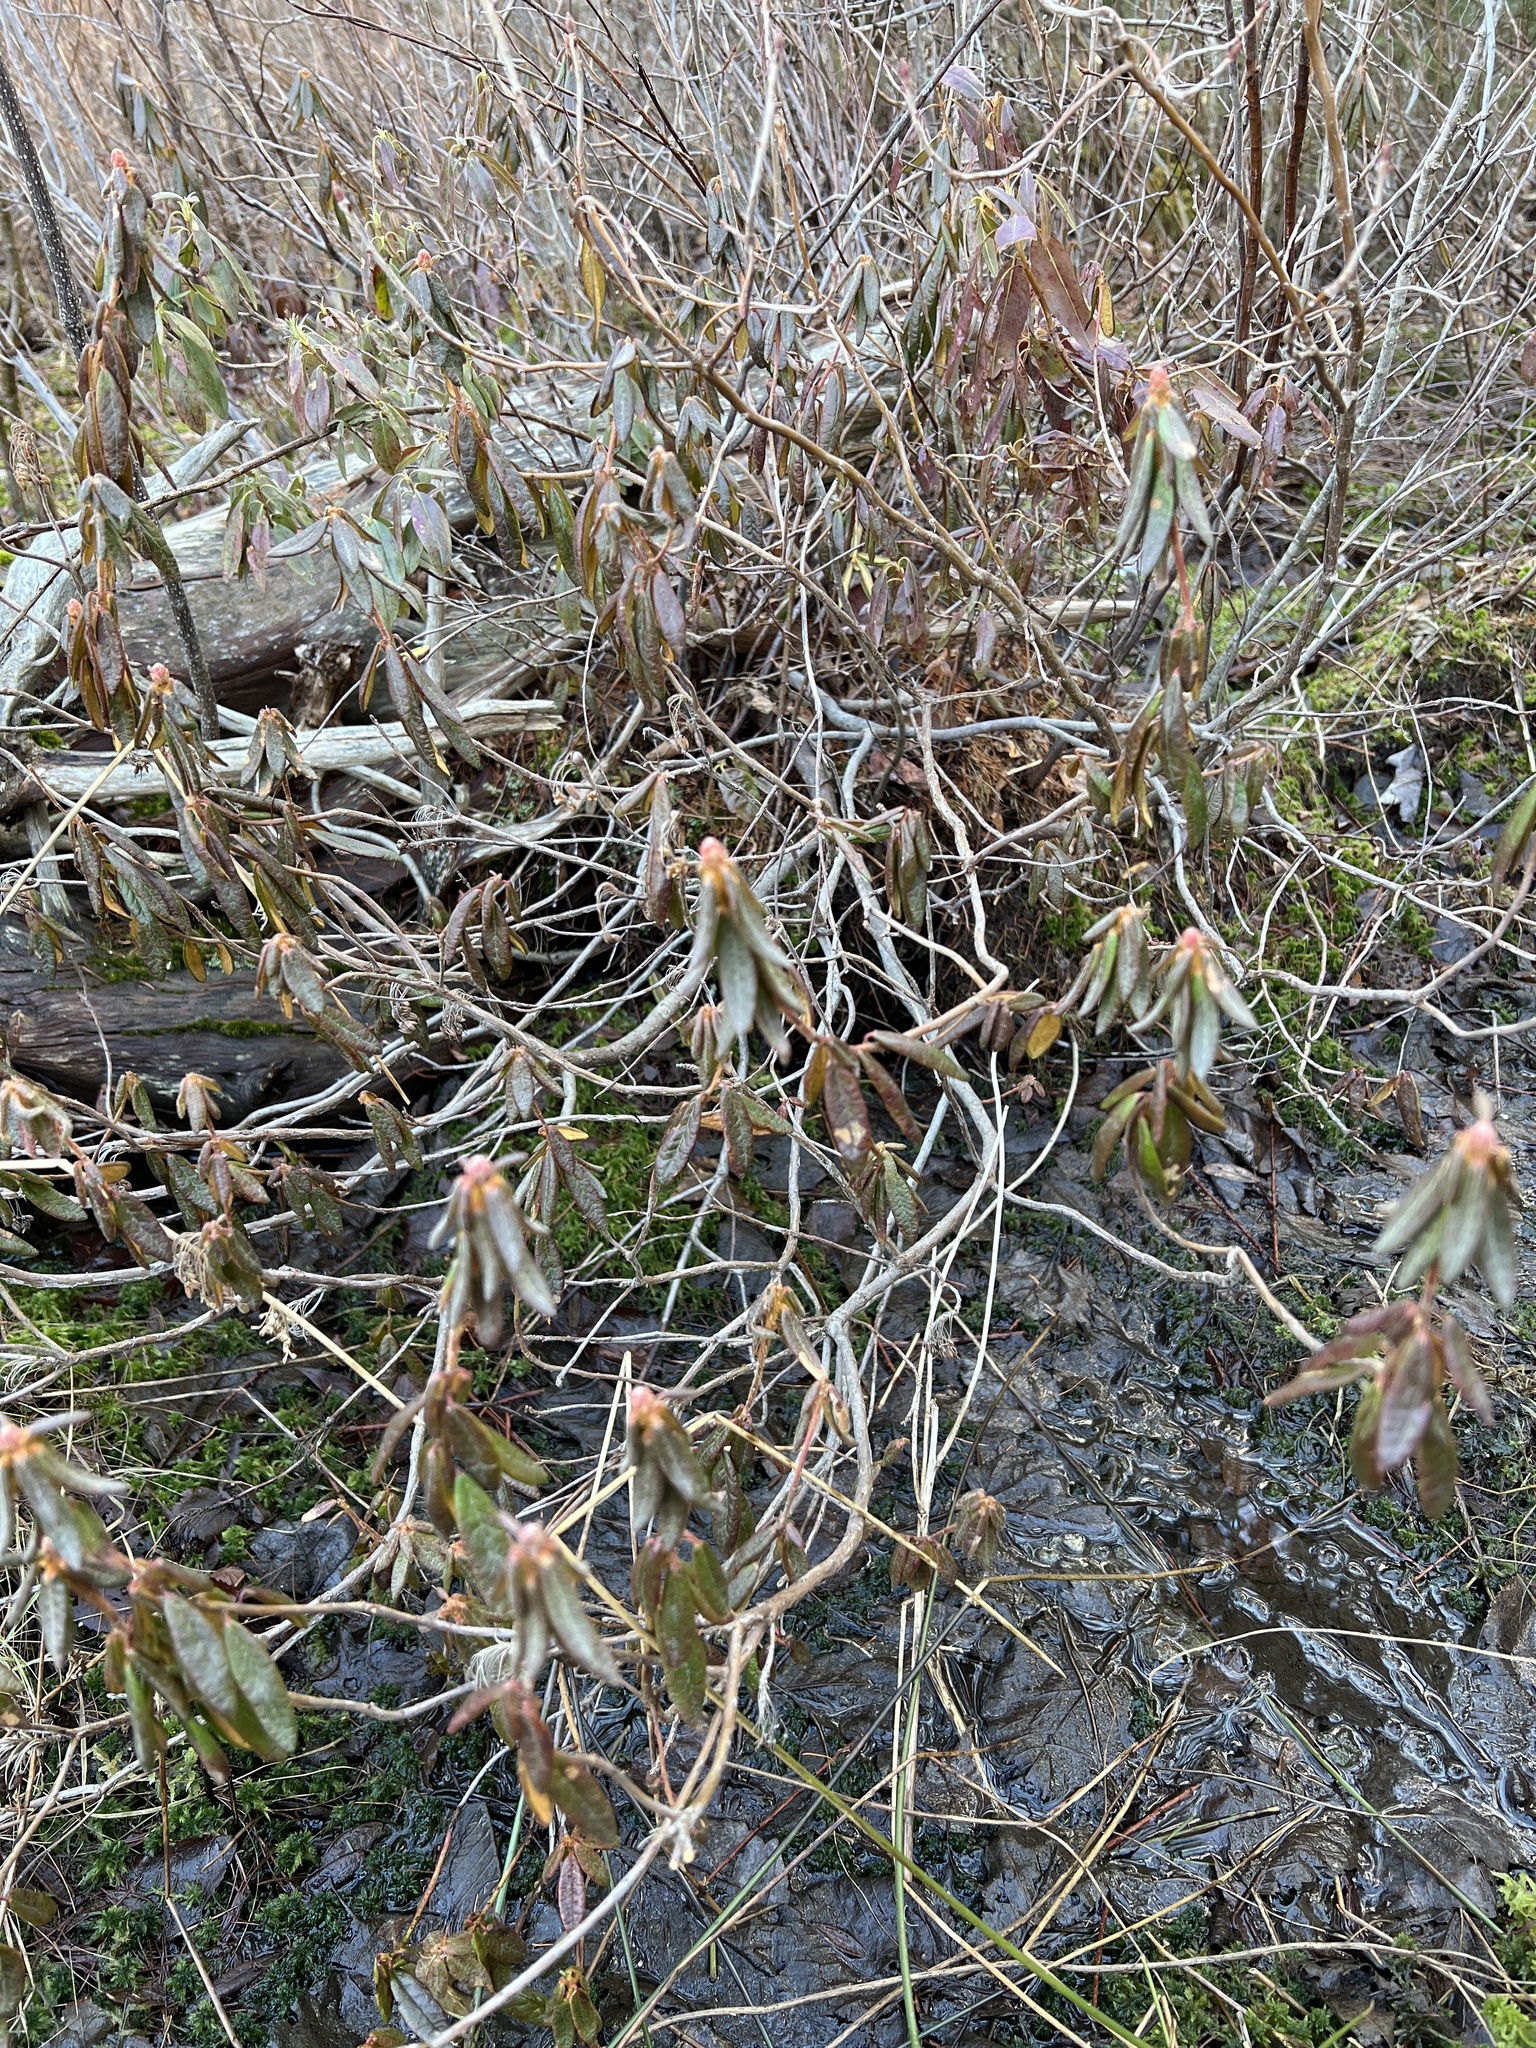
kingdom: Plantae
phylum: Tracheophyta
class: Magnoliopsida
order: Ericales
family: Ericaceae
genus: Rhododendron
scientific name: Rhododendron groenlandicum
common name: Bog labrador tea
